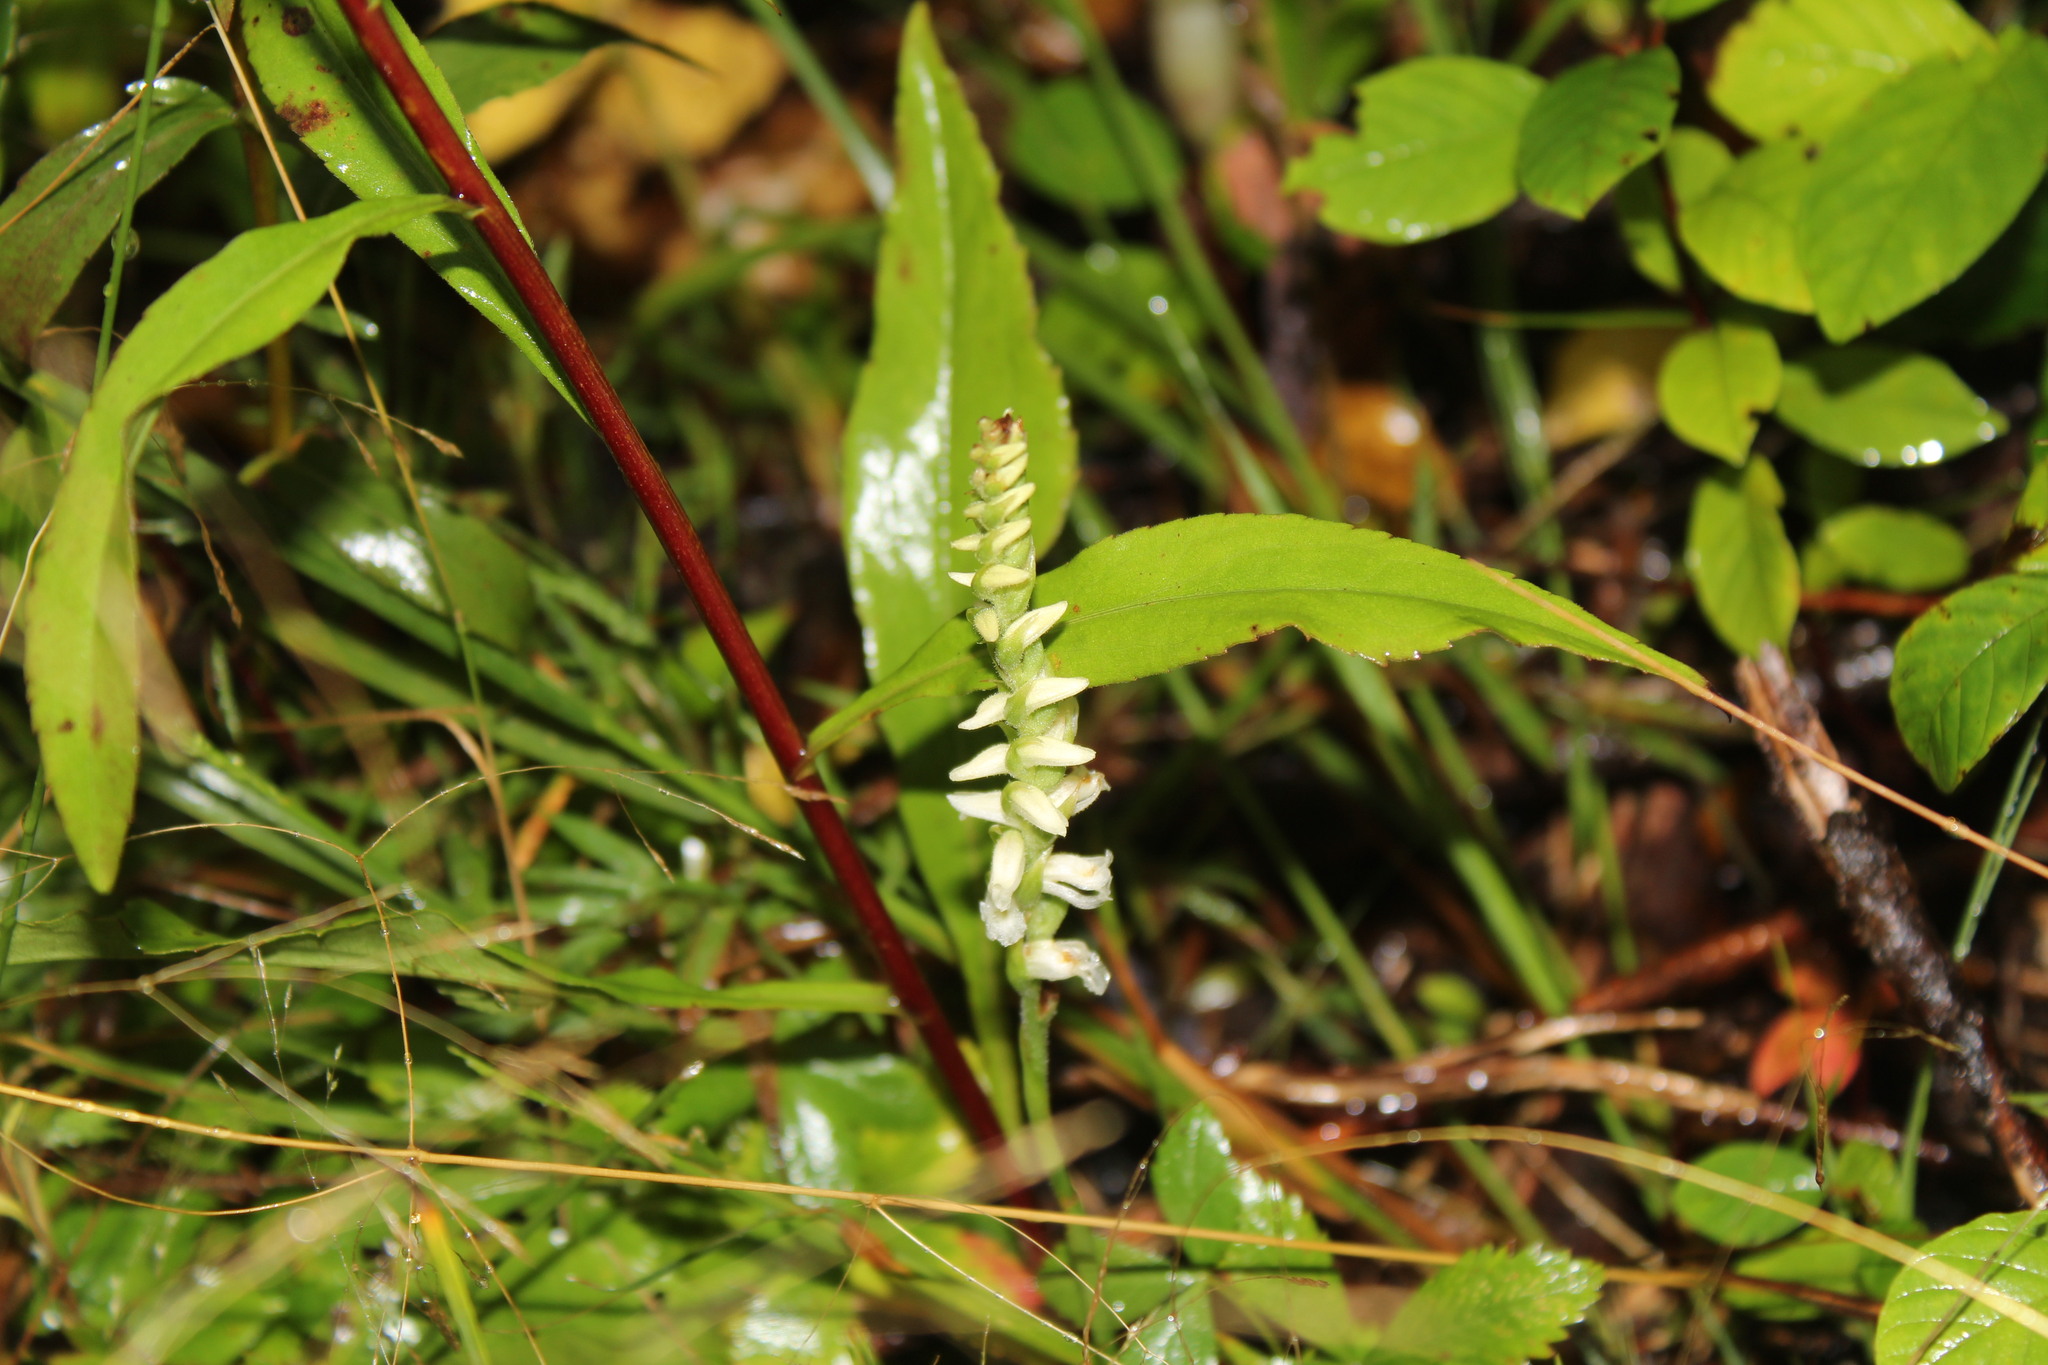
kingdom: Plantae
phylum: Tracheophyta
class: Liliopsida
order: Asparagales
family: Orchidaceae
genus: Spiranthes
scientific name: Spiranthes ochroleuca
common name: Yellow ladies'-tresses
